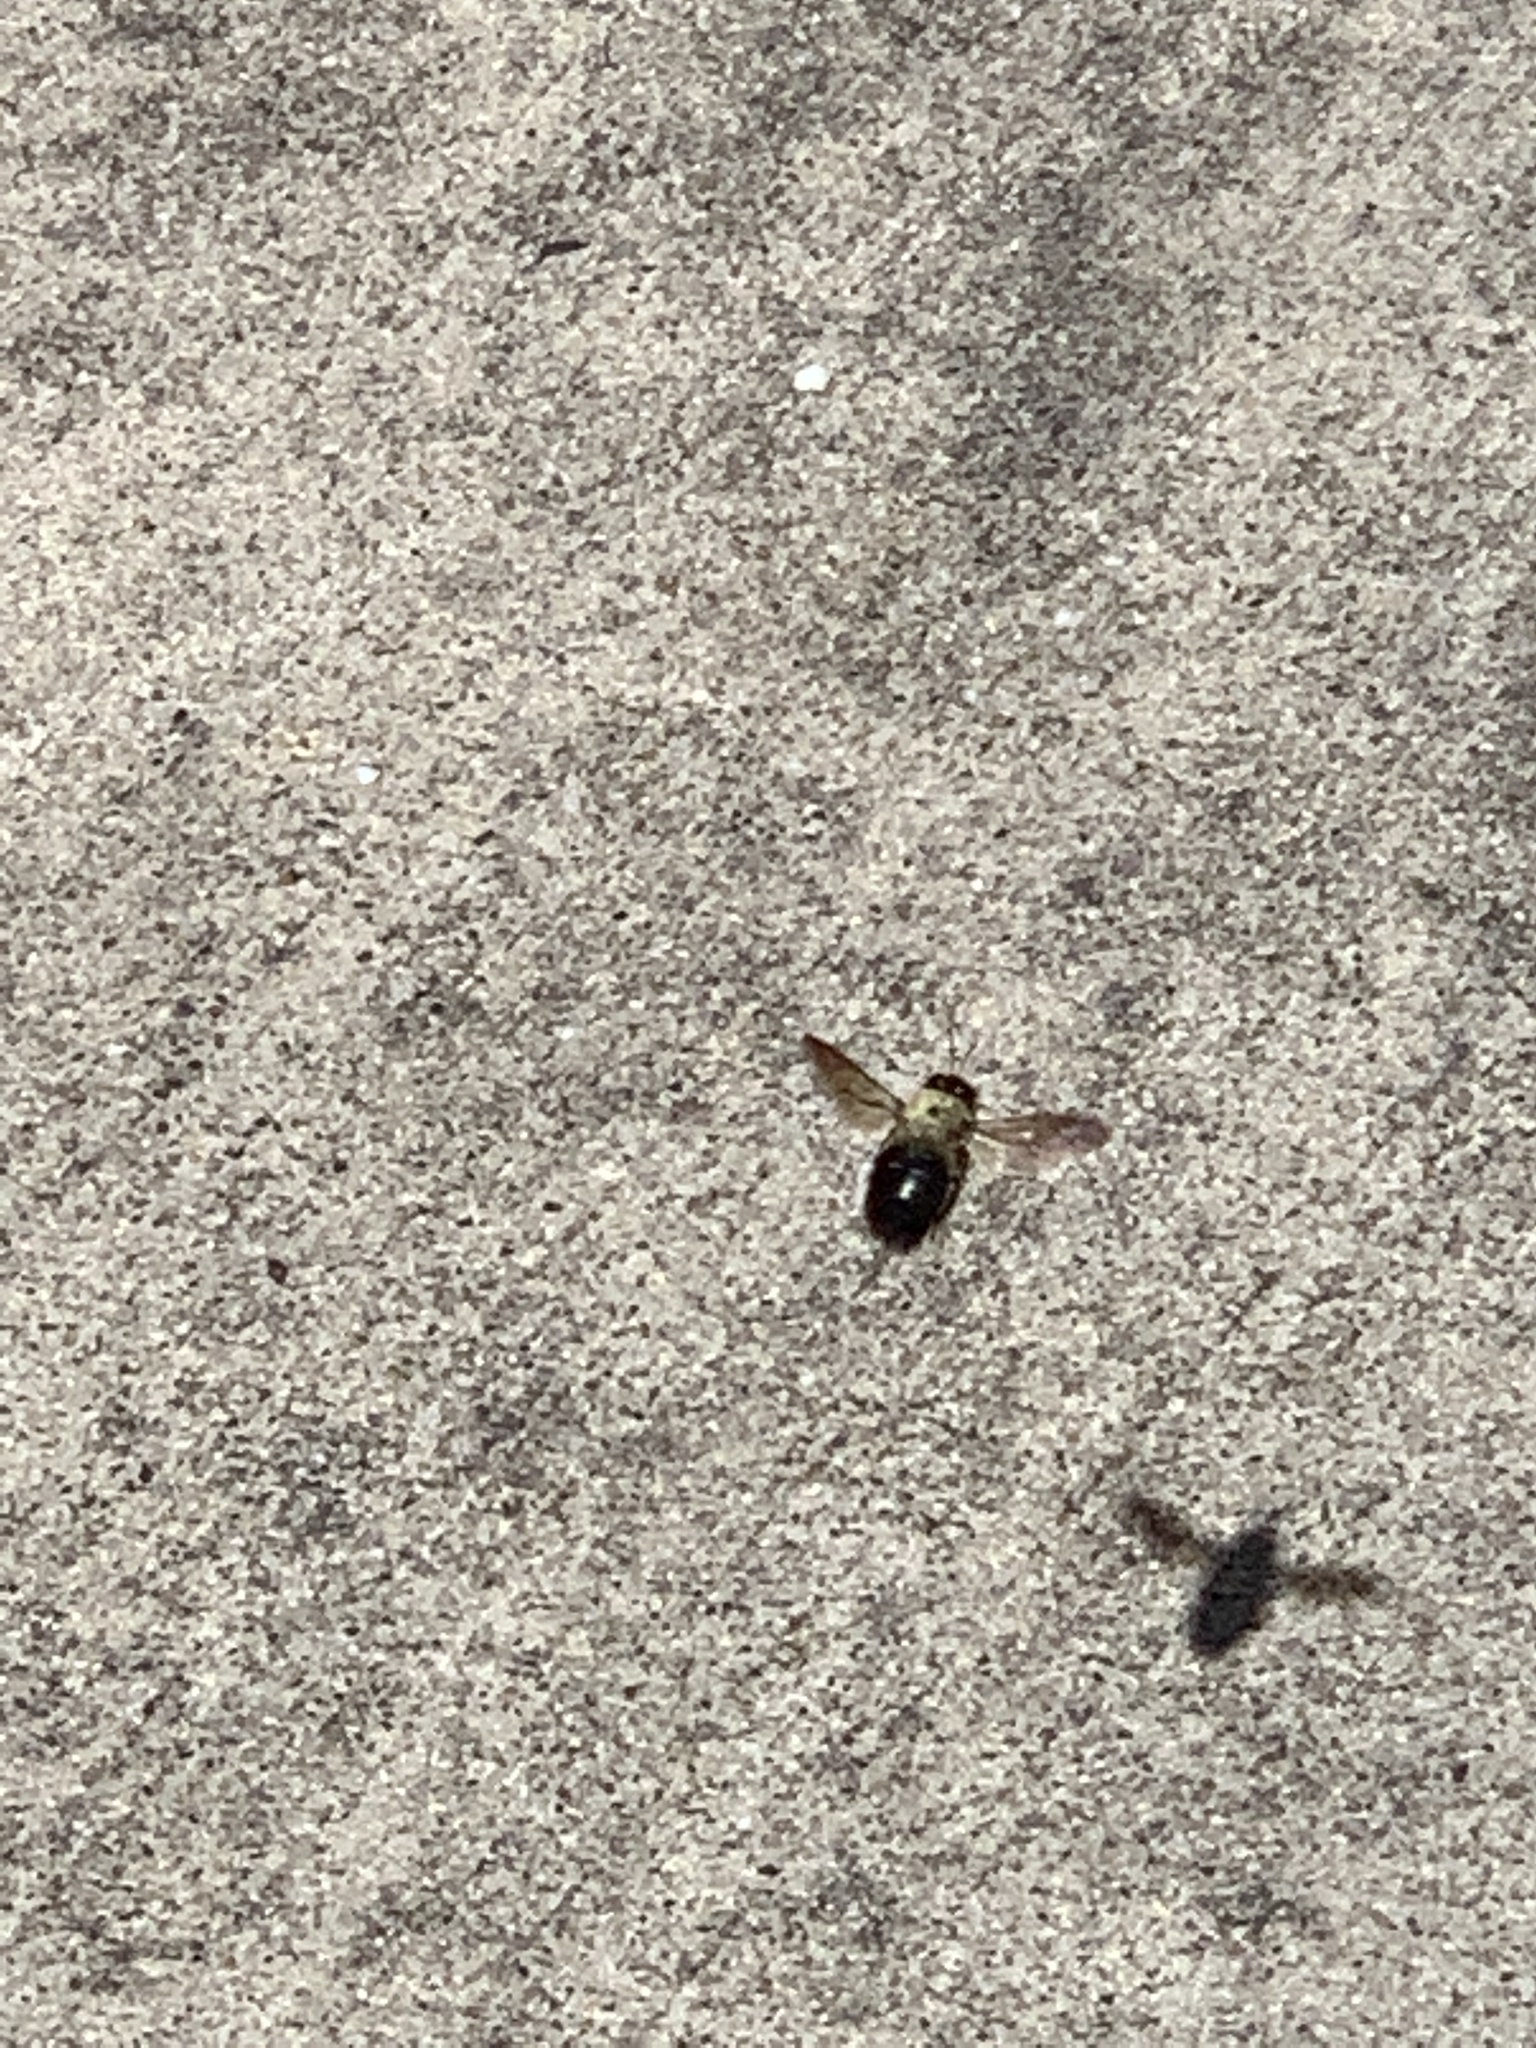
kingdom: Animalia
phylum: Arthropoda
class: Insecta
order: Hymenoptera
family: Apidae
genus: Xylocopa
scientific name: Xylocopa virginica
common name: Carpenter bee
